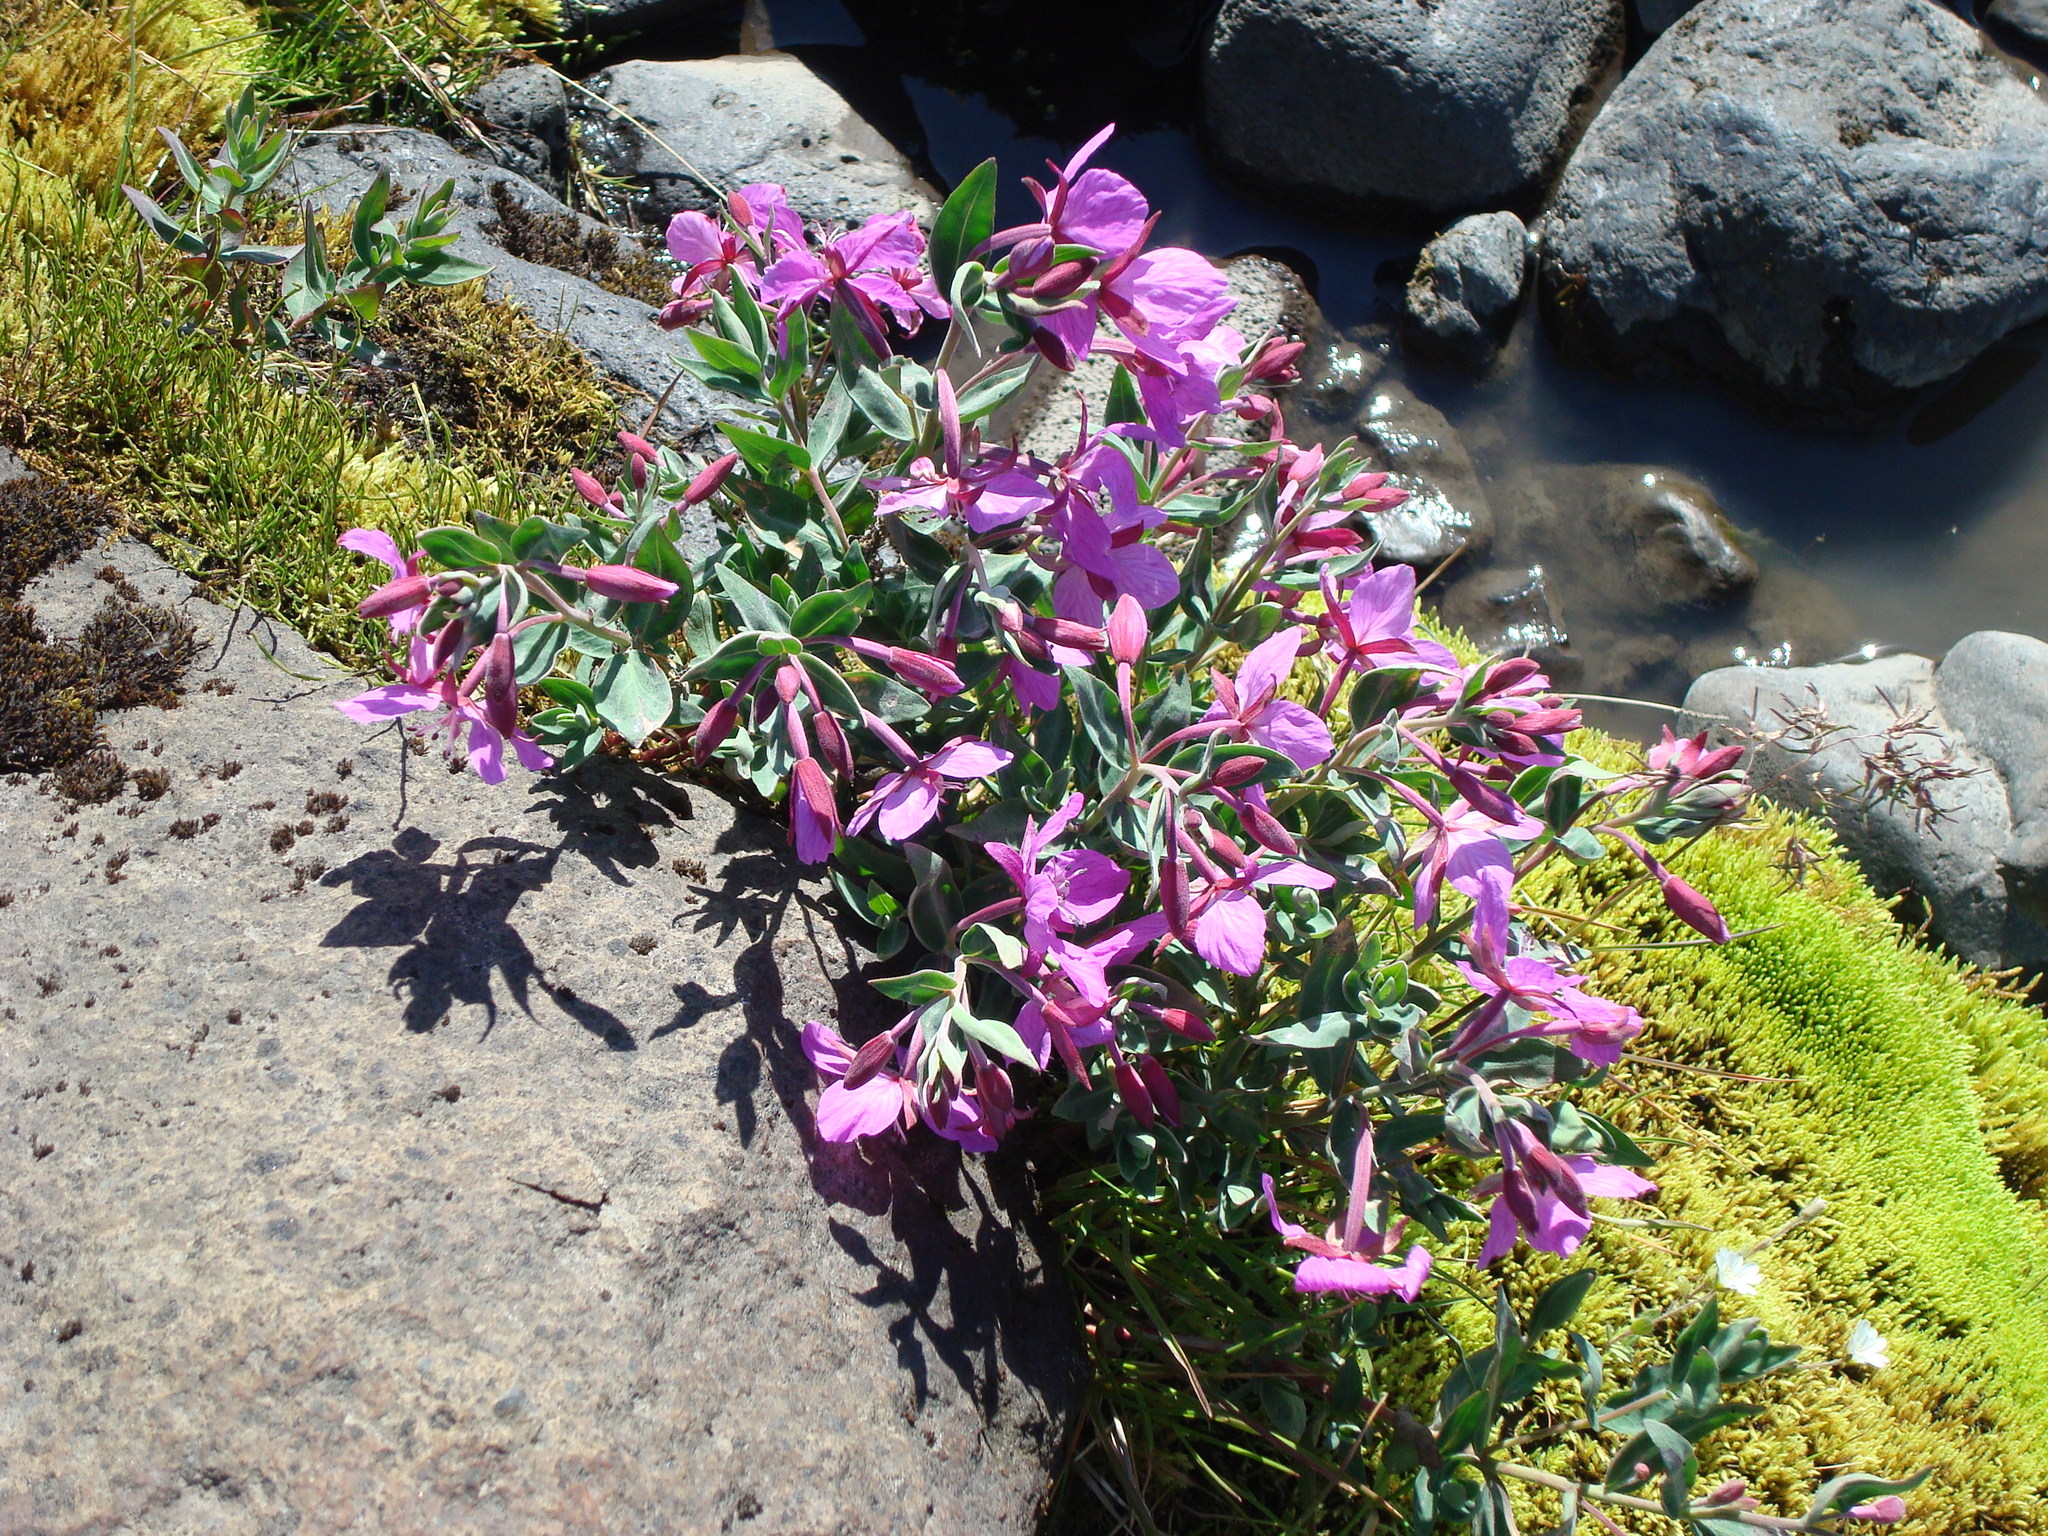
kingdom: Plantae
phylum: Tracheophyta
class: Magnoliopsida
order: Myrtales
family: Onagraceae
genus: Chamaenerion
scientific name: Chamaenerion latifolium
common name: Dwarf fireweed
